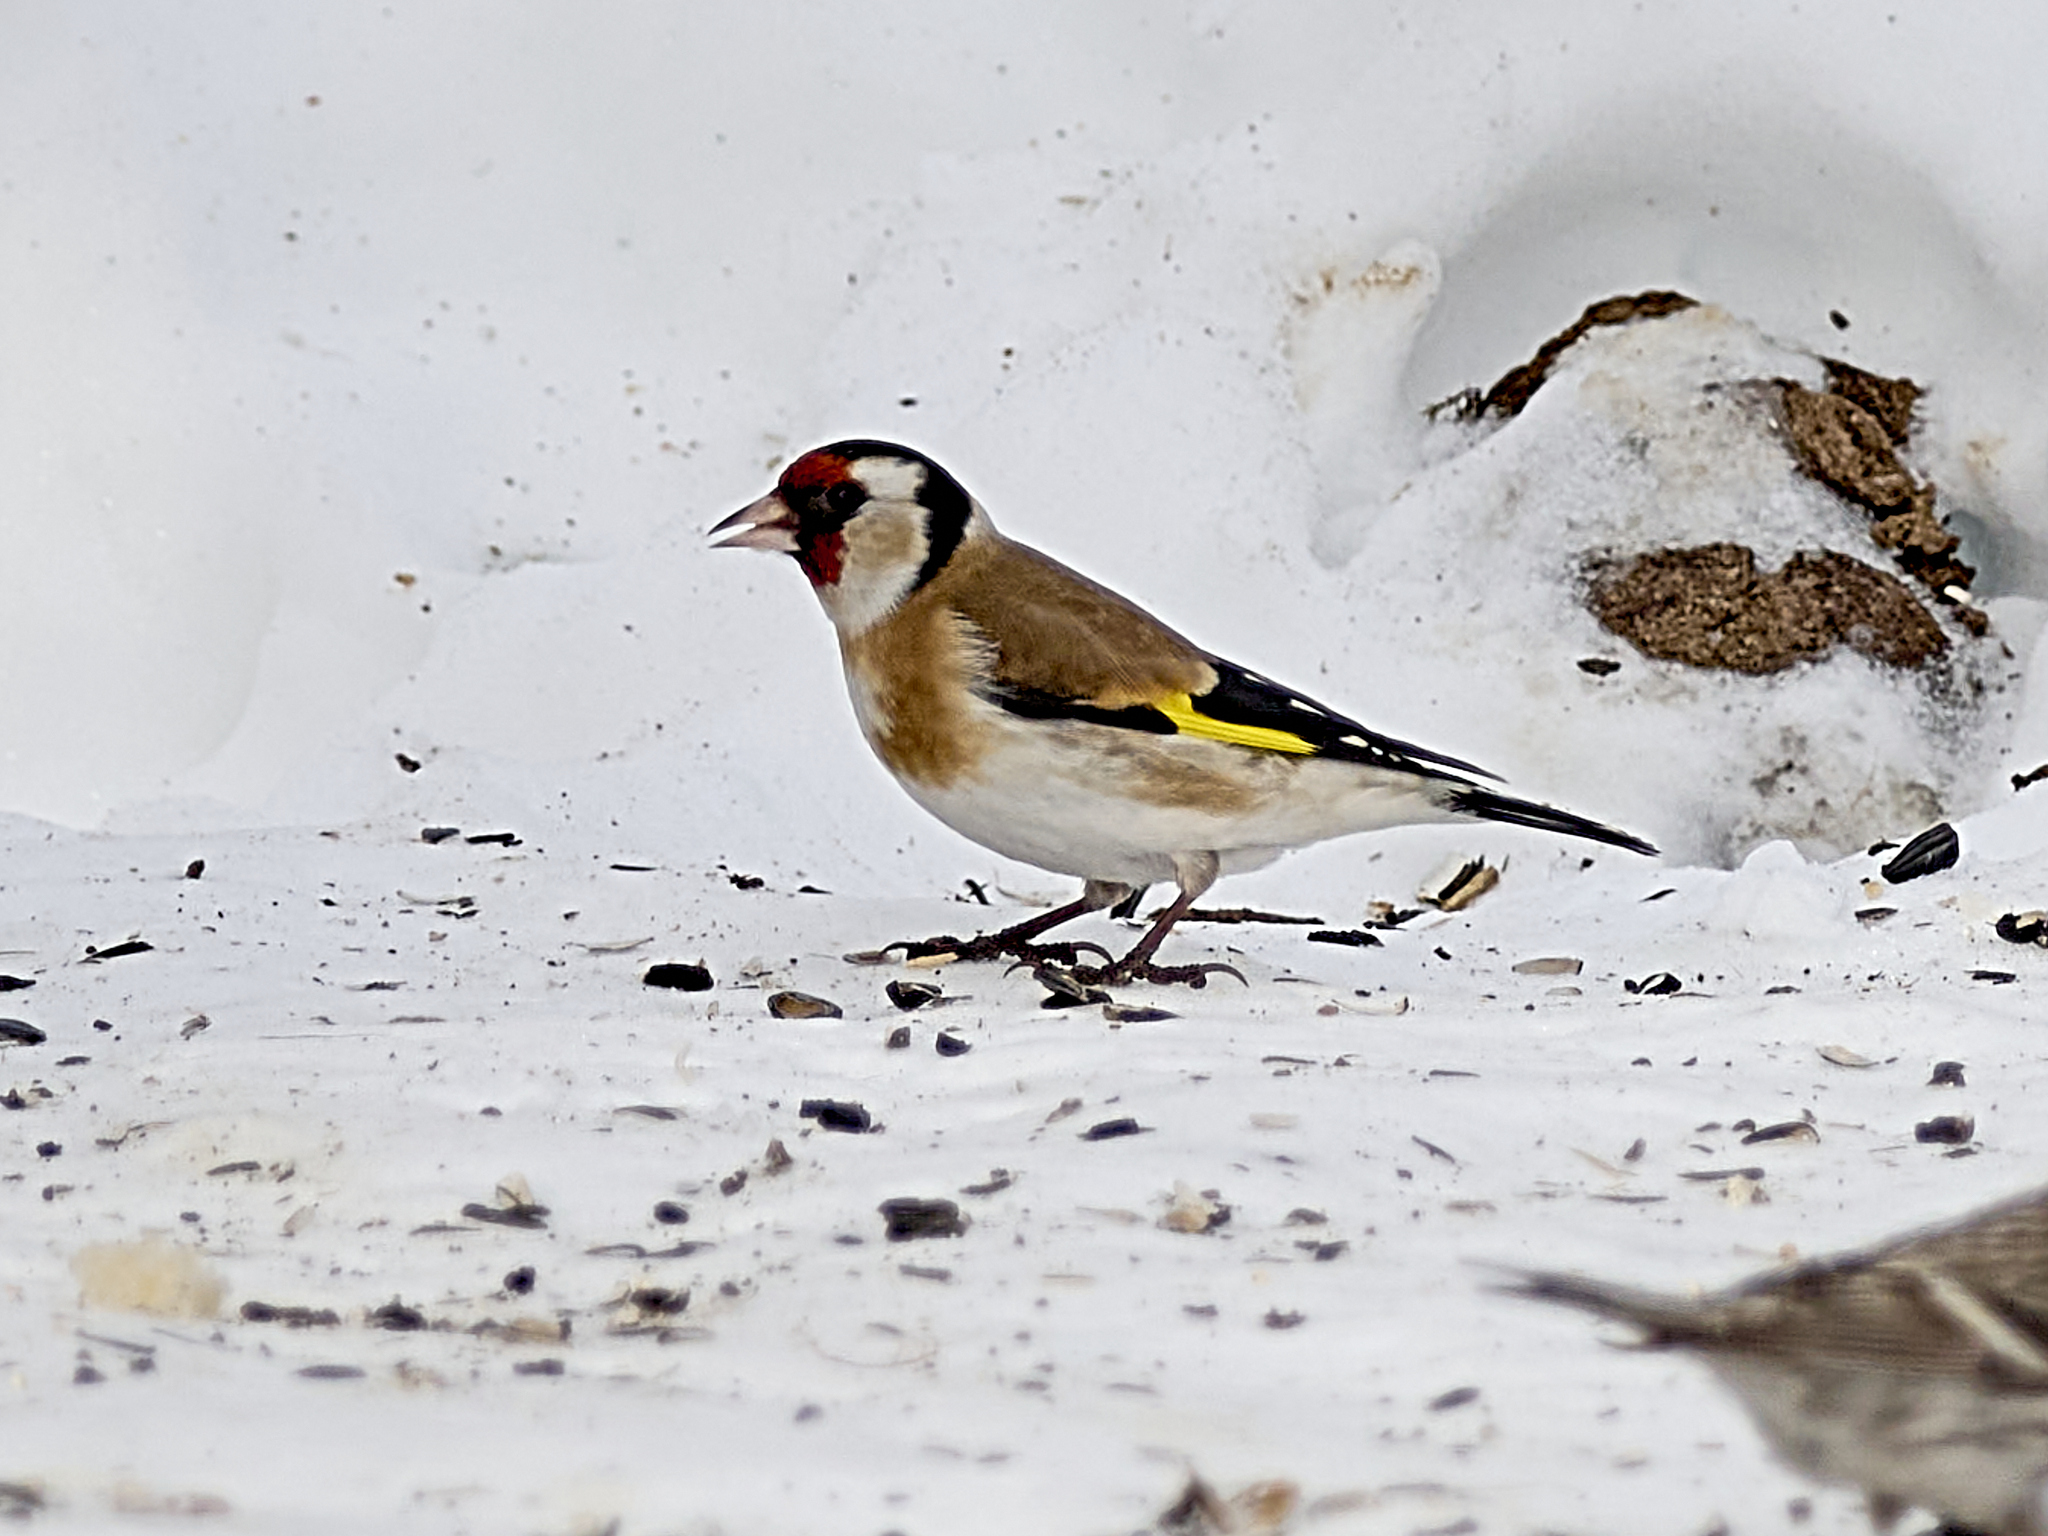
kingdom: Animalia
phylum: Chordata
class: Aves
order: Passeriformes
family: Fringillidae
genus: Carduelis
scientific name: Carduelis carduelis
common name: European goldfinch
